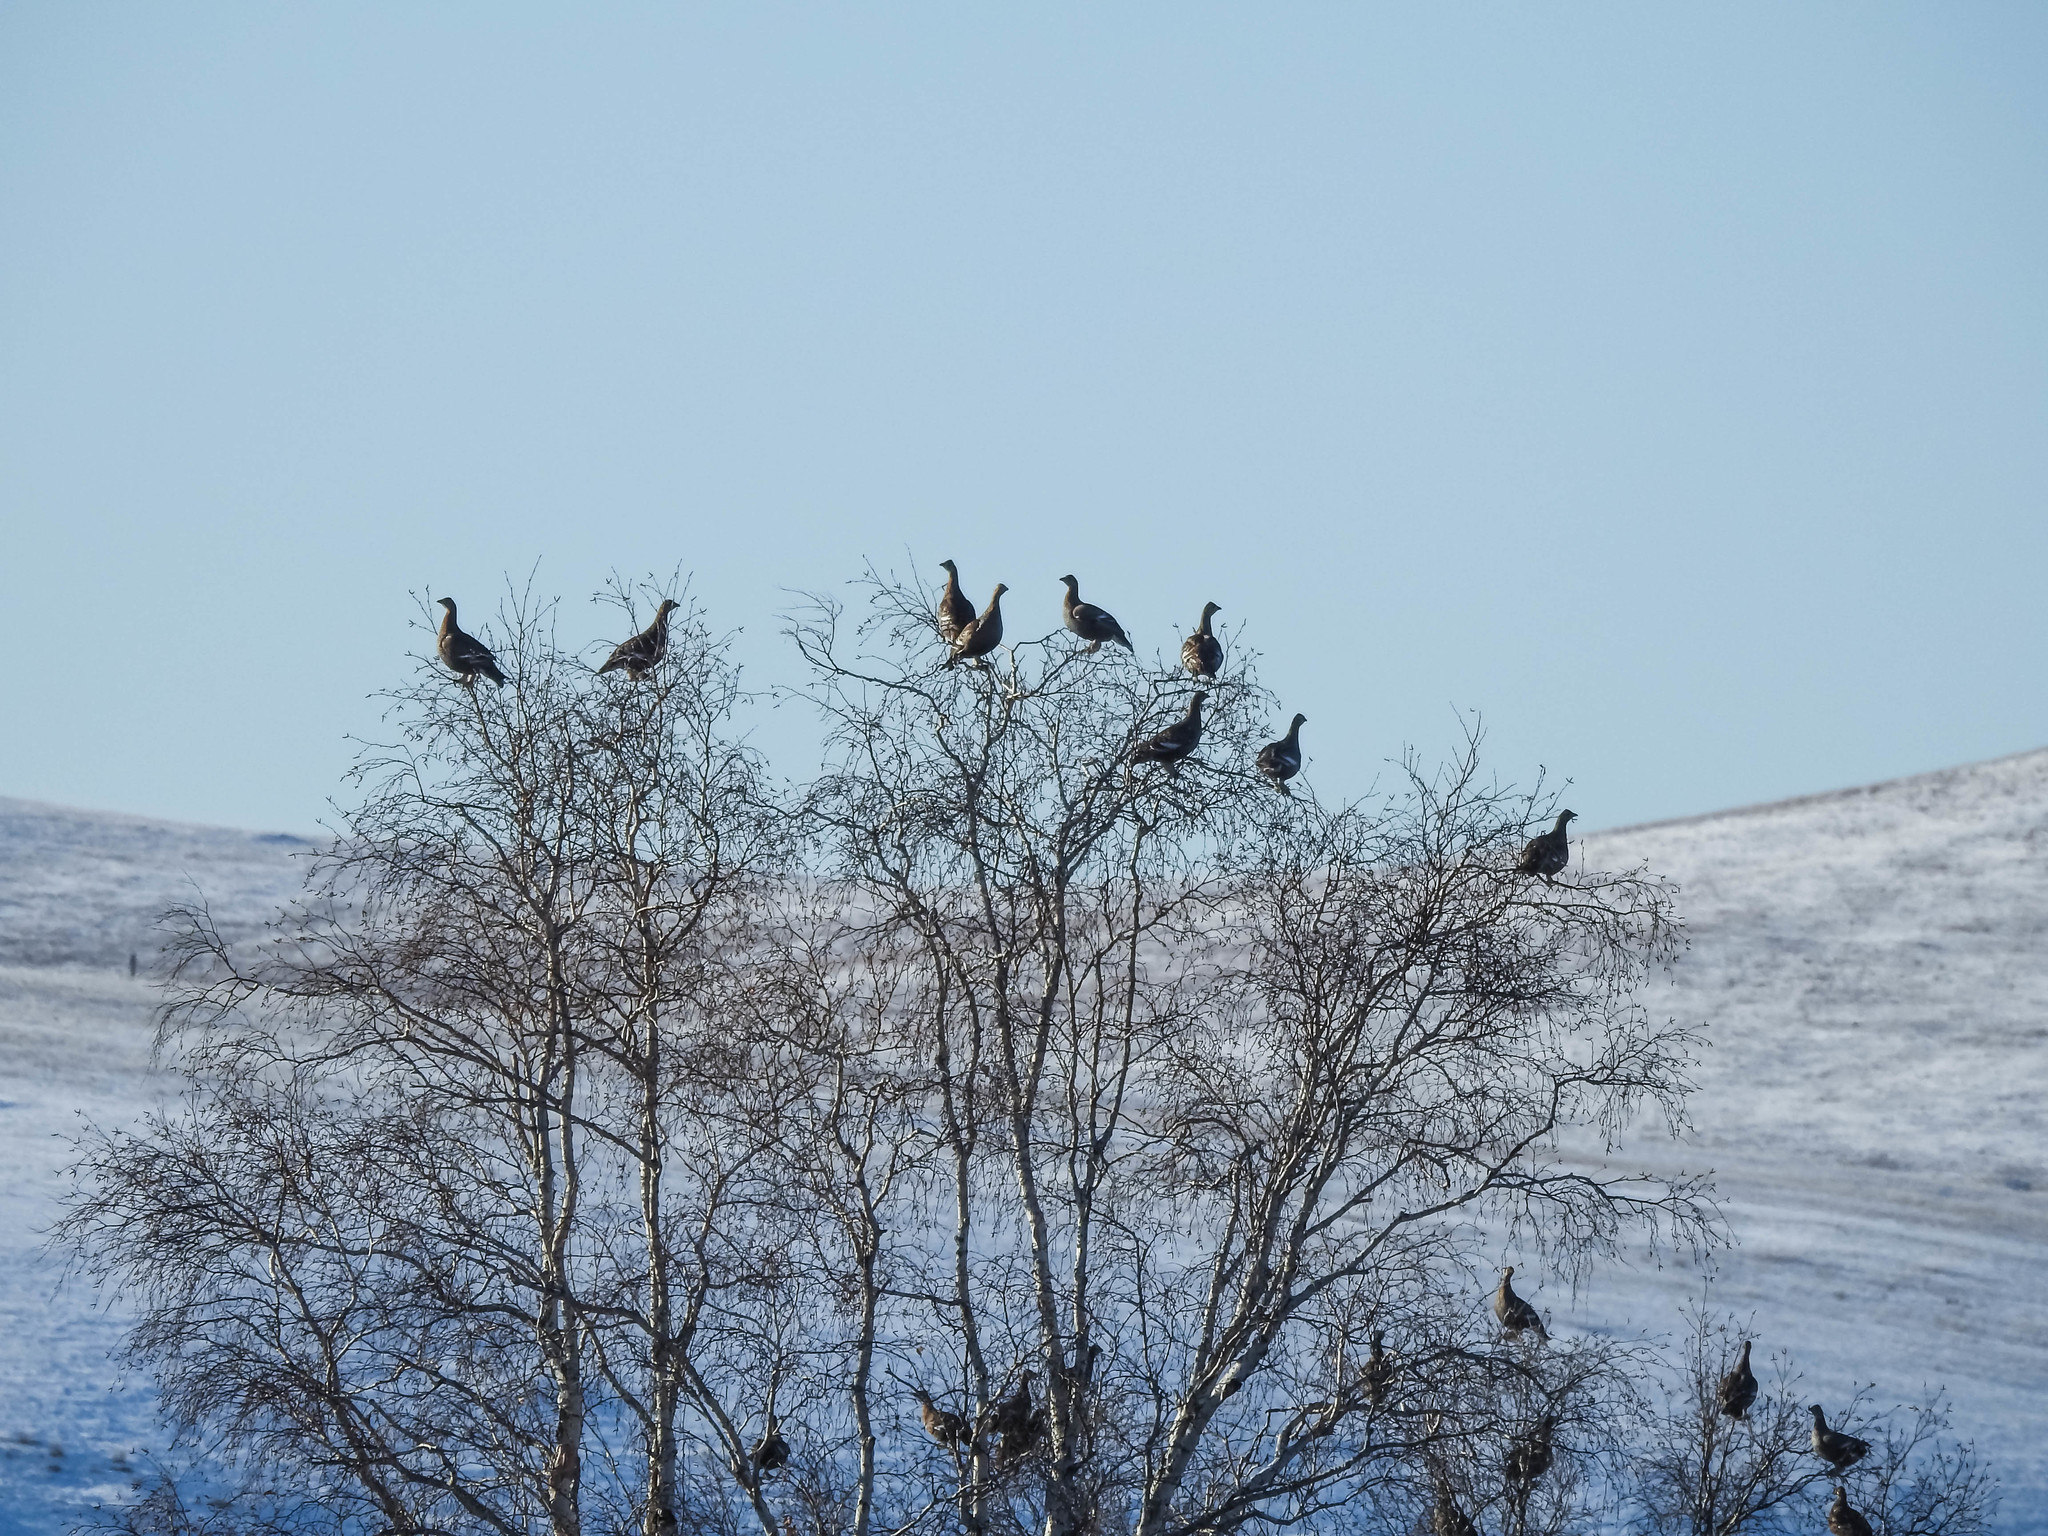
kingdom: Animalia
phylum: Chordata
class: Aves
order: Galliformes
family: Phasianidae
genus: Lyrurus
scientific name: Lyrurus tetrix
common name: Black grouse
